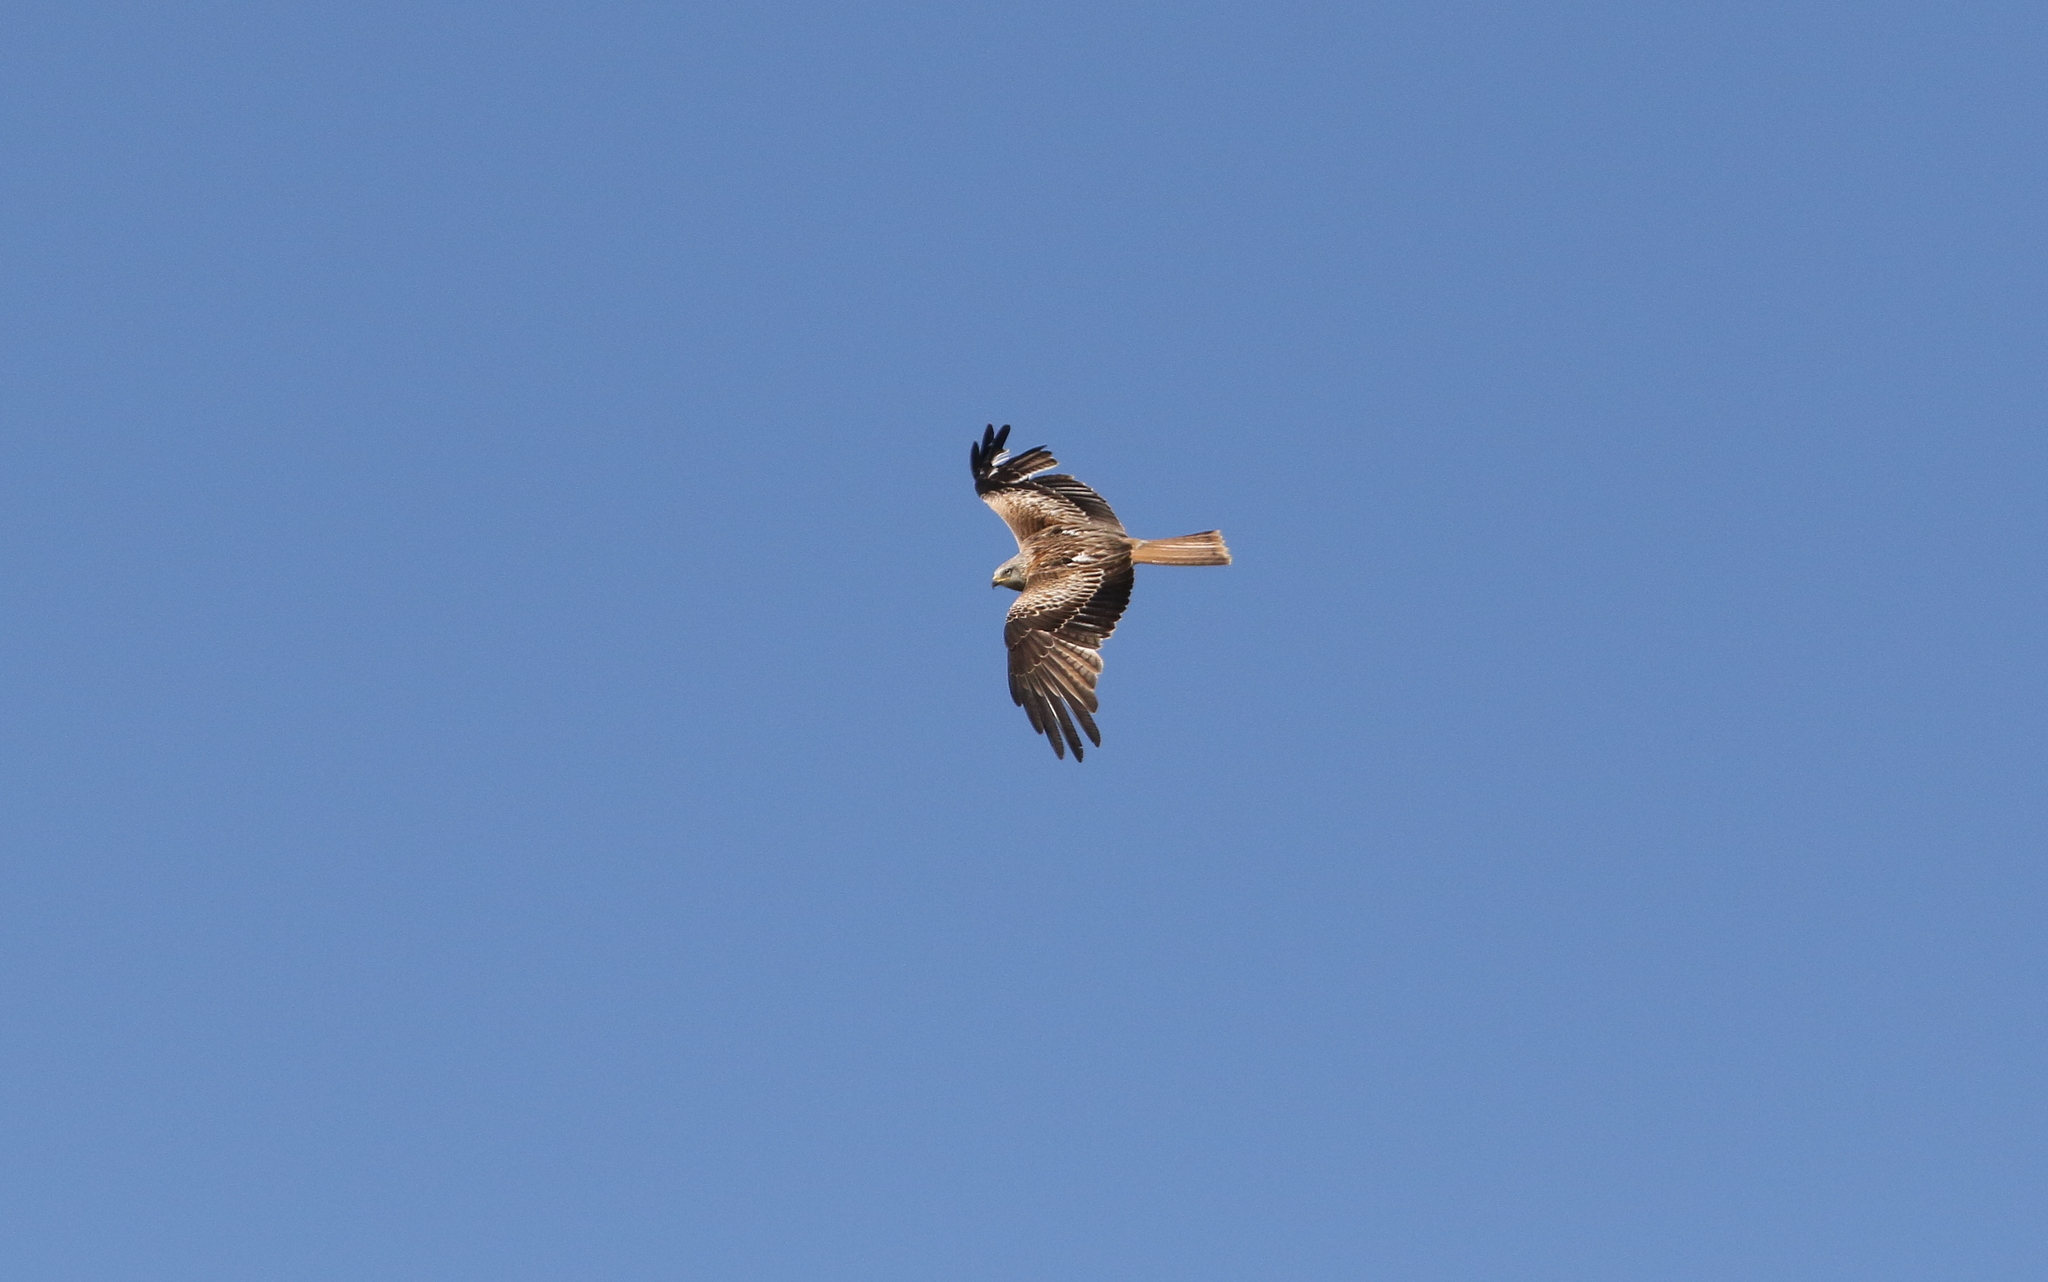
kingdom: Animalia
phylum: Chordata
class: Aves
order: Accipitriformes
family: Accipitridae
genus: Milvus
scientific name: Milvus milvus
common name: Red kite
